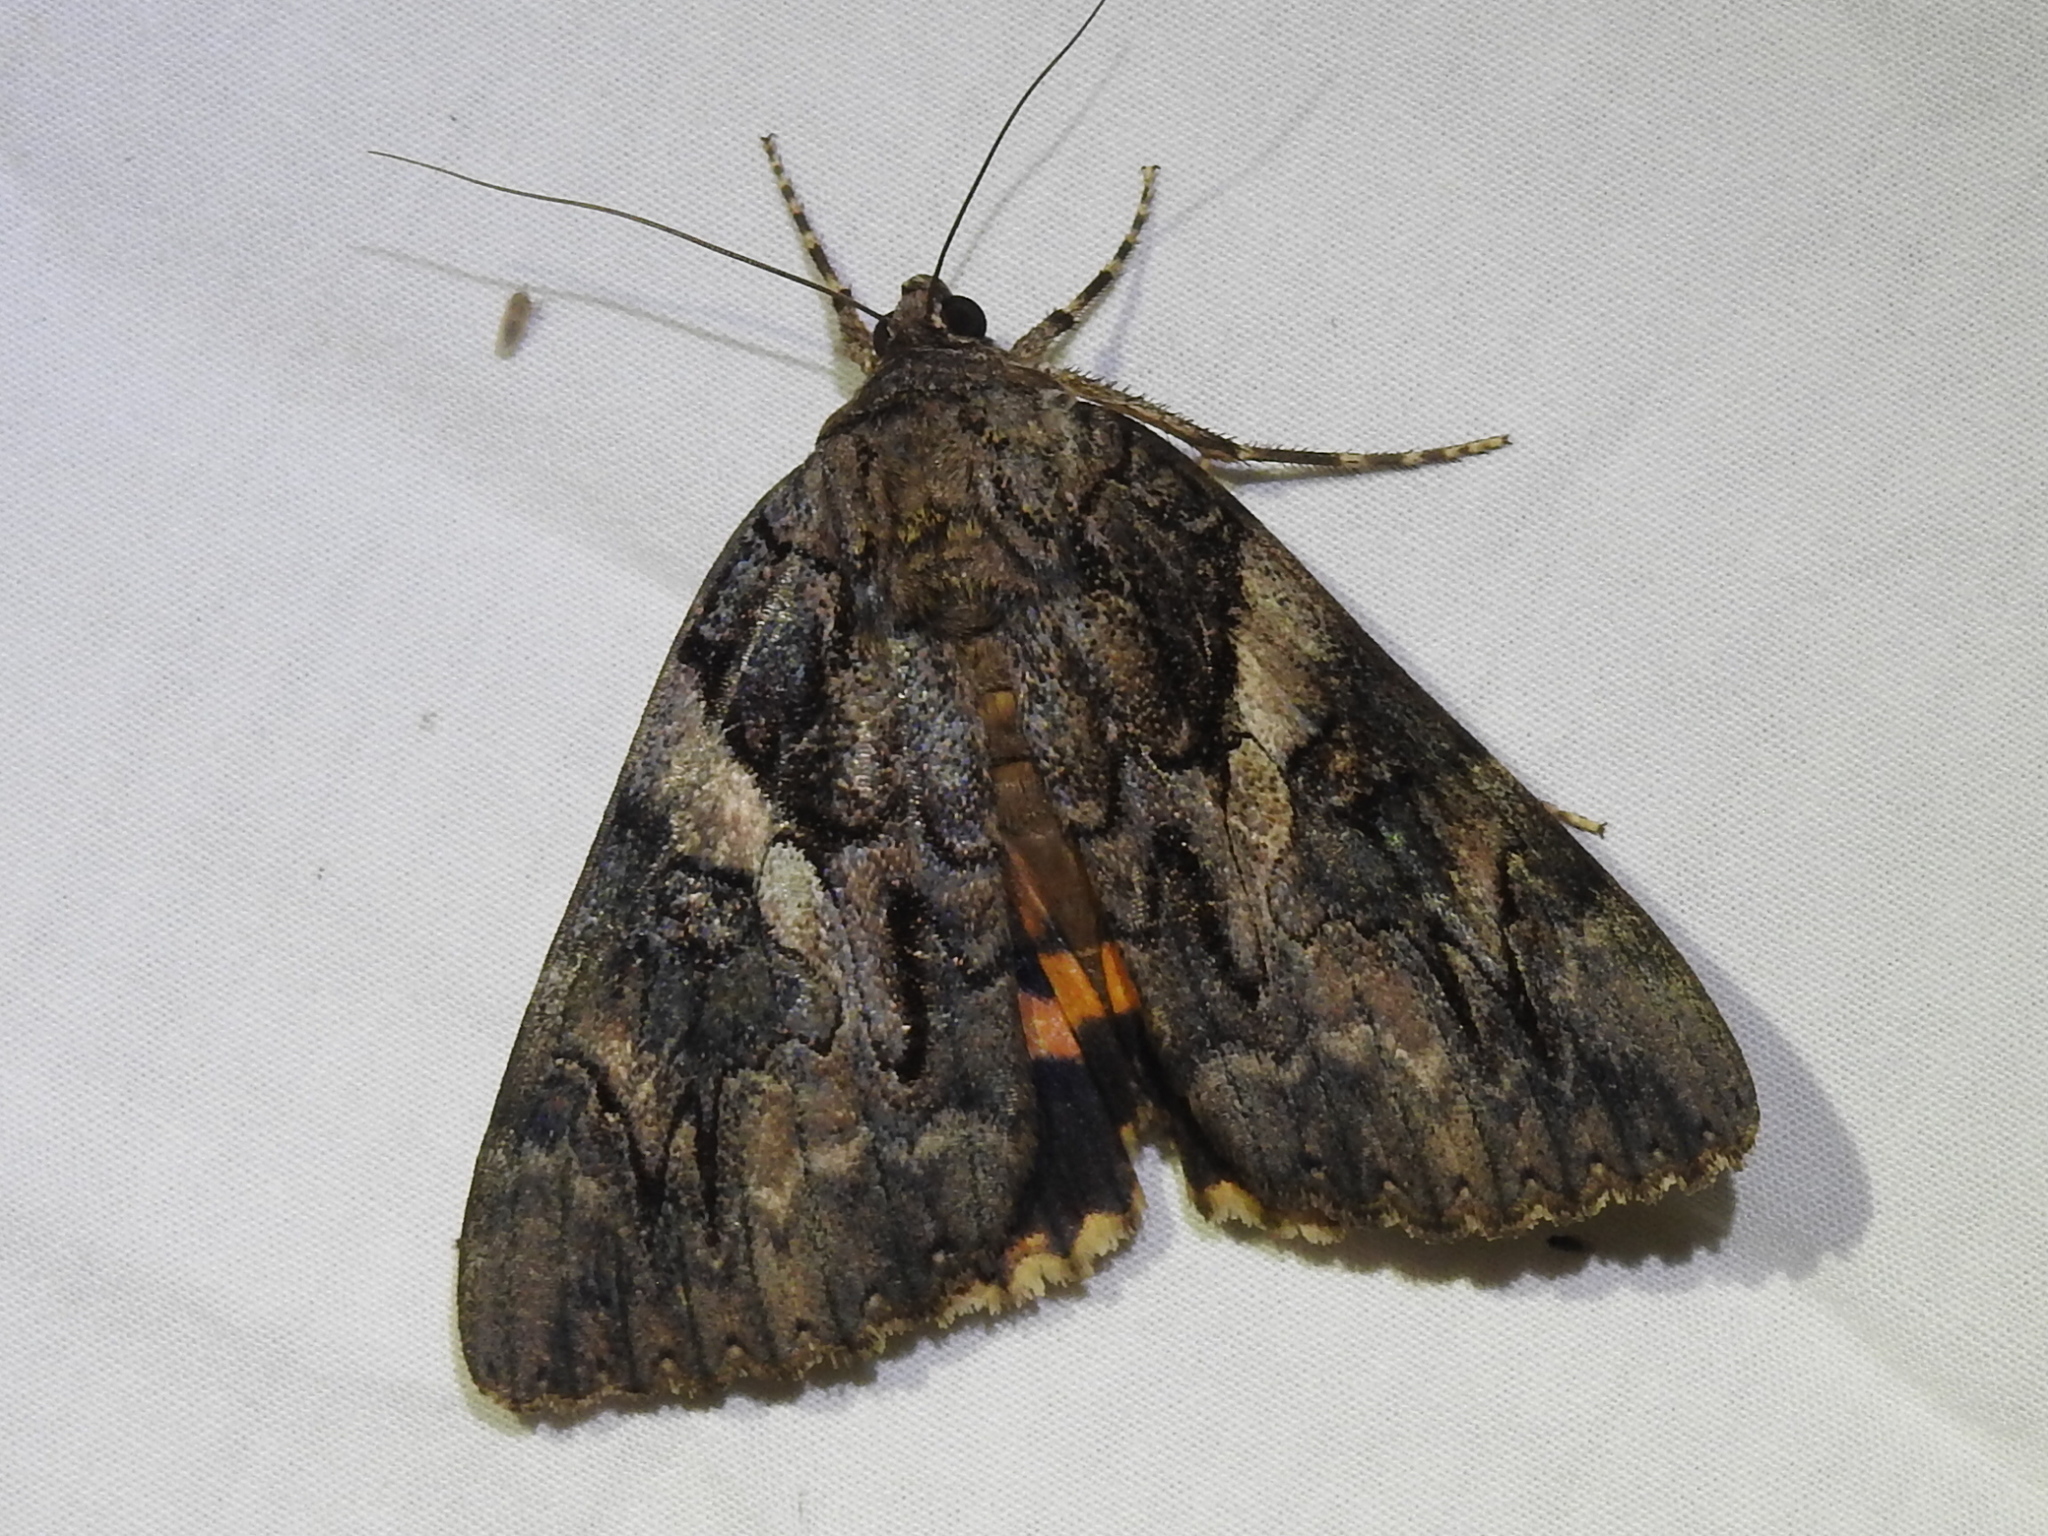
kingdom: Animalia
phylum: Arthropoda
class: Insecta
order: Lepidoptera
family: Erebidae
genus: Catocala
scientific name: Catocala piatrix
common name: The penitent underwing
